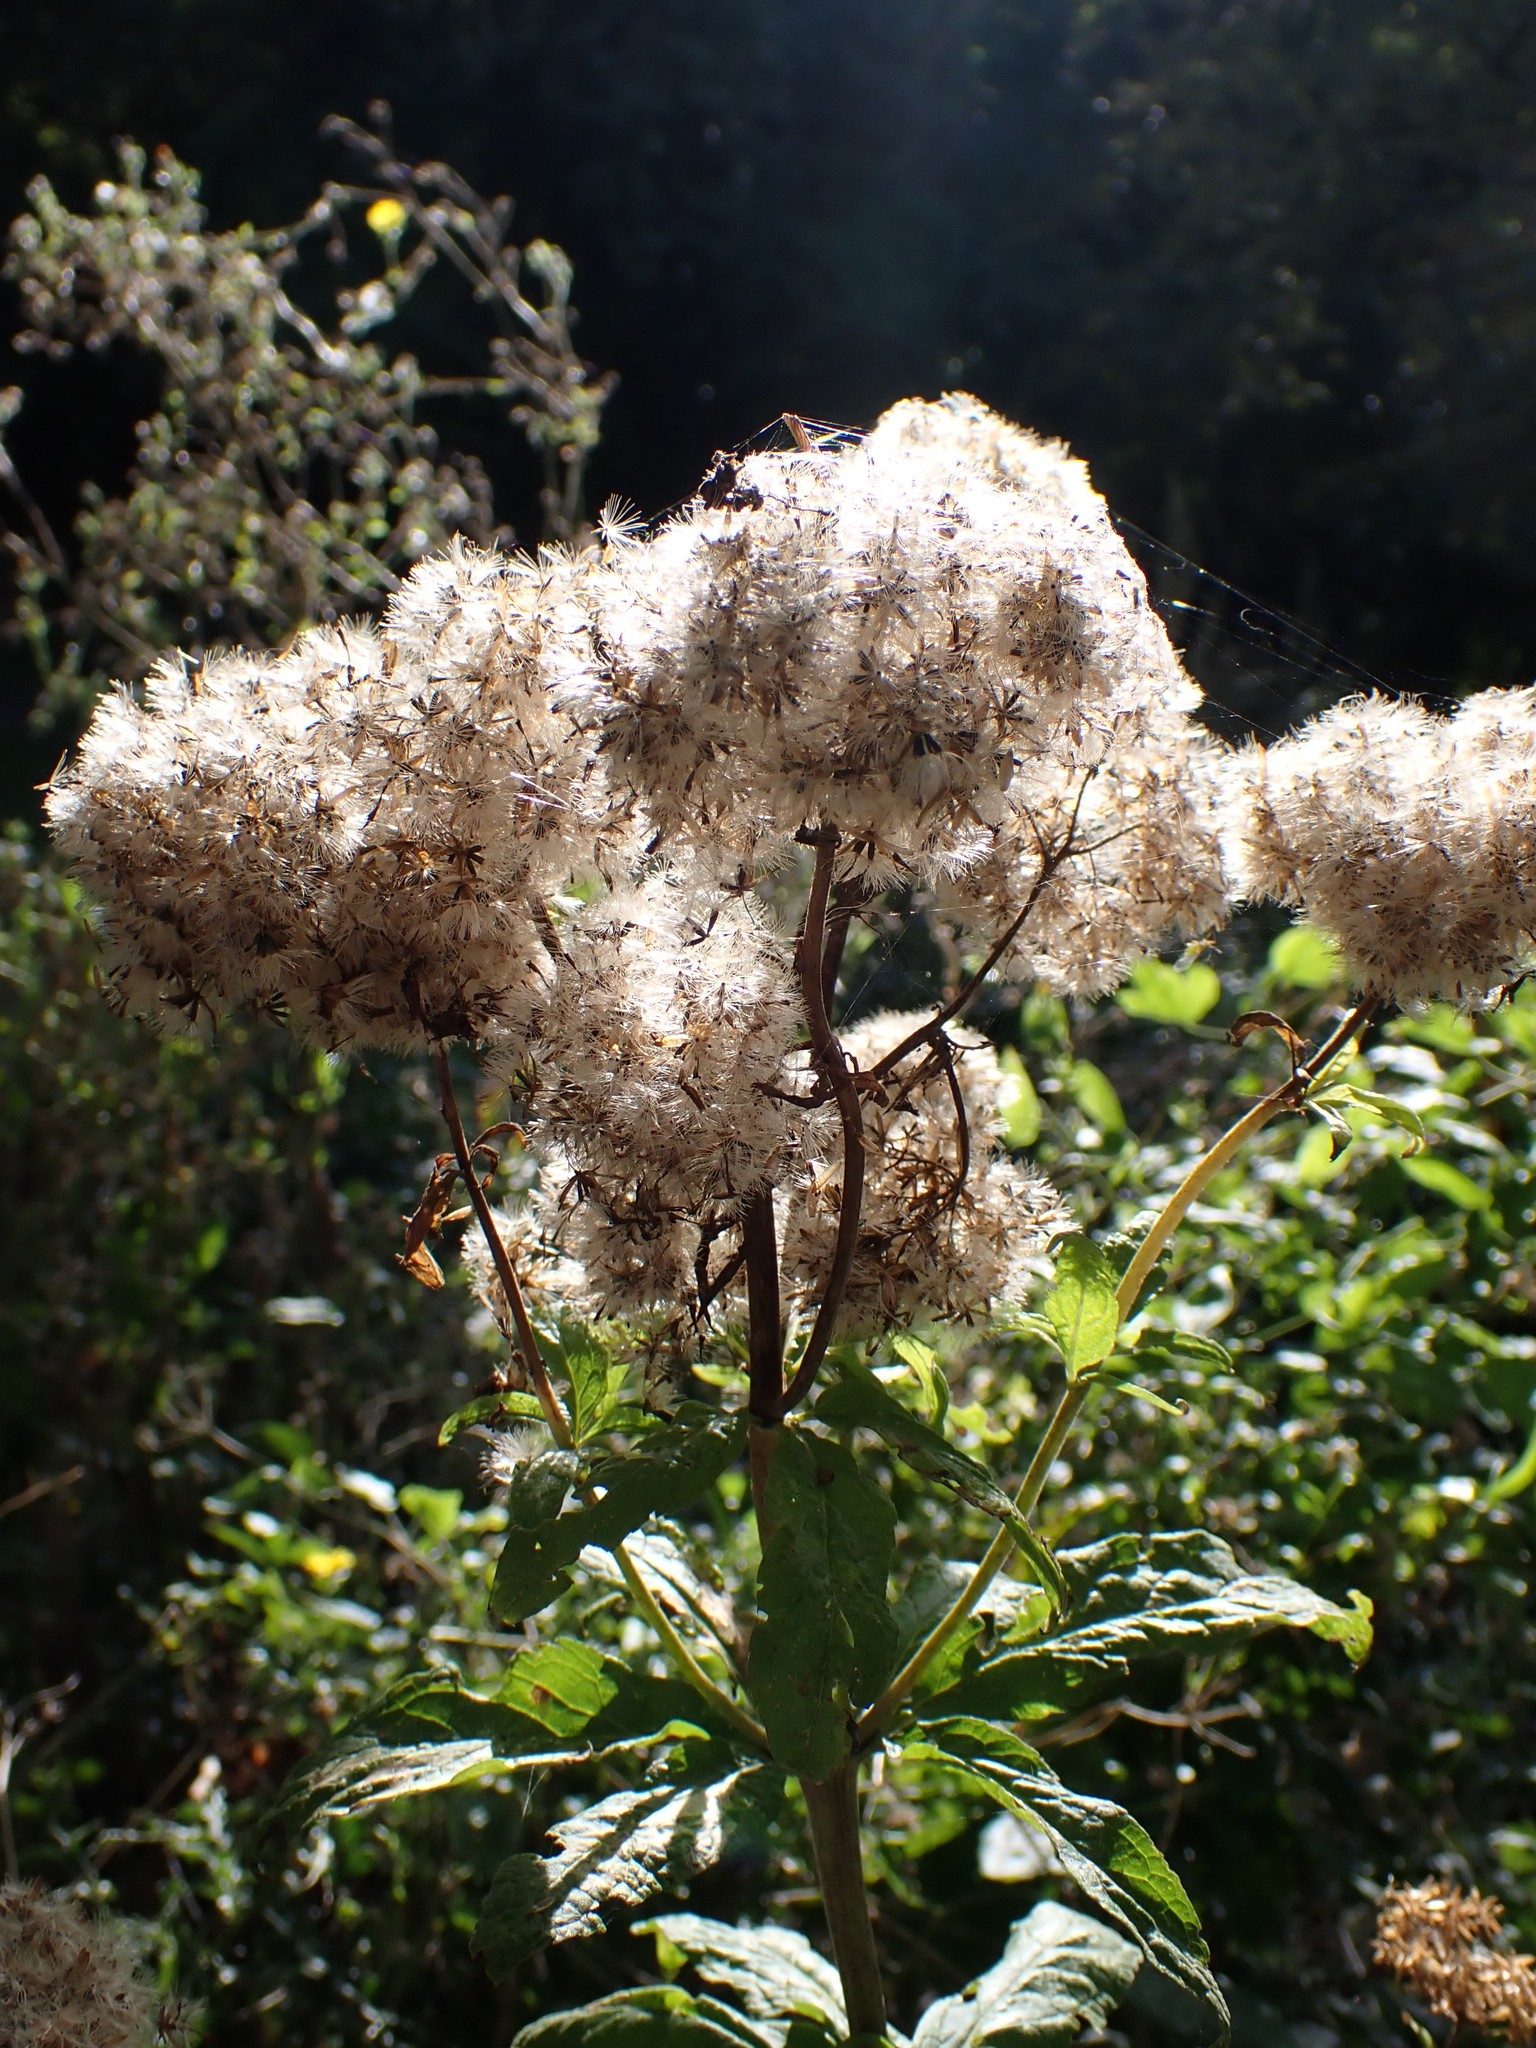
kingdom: Plantae
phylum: Tracheophyta
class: Magnoliopsida
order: Asterales
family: Asteraceae
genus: Eupatorium
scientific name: Eupatorium cannabinum
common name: Hemp-agrimony
